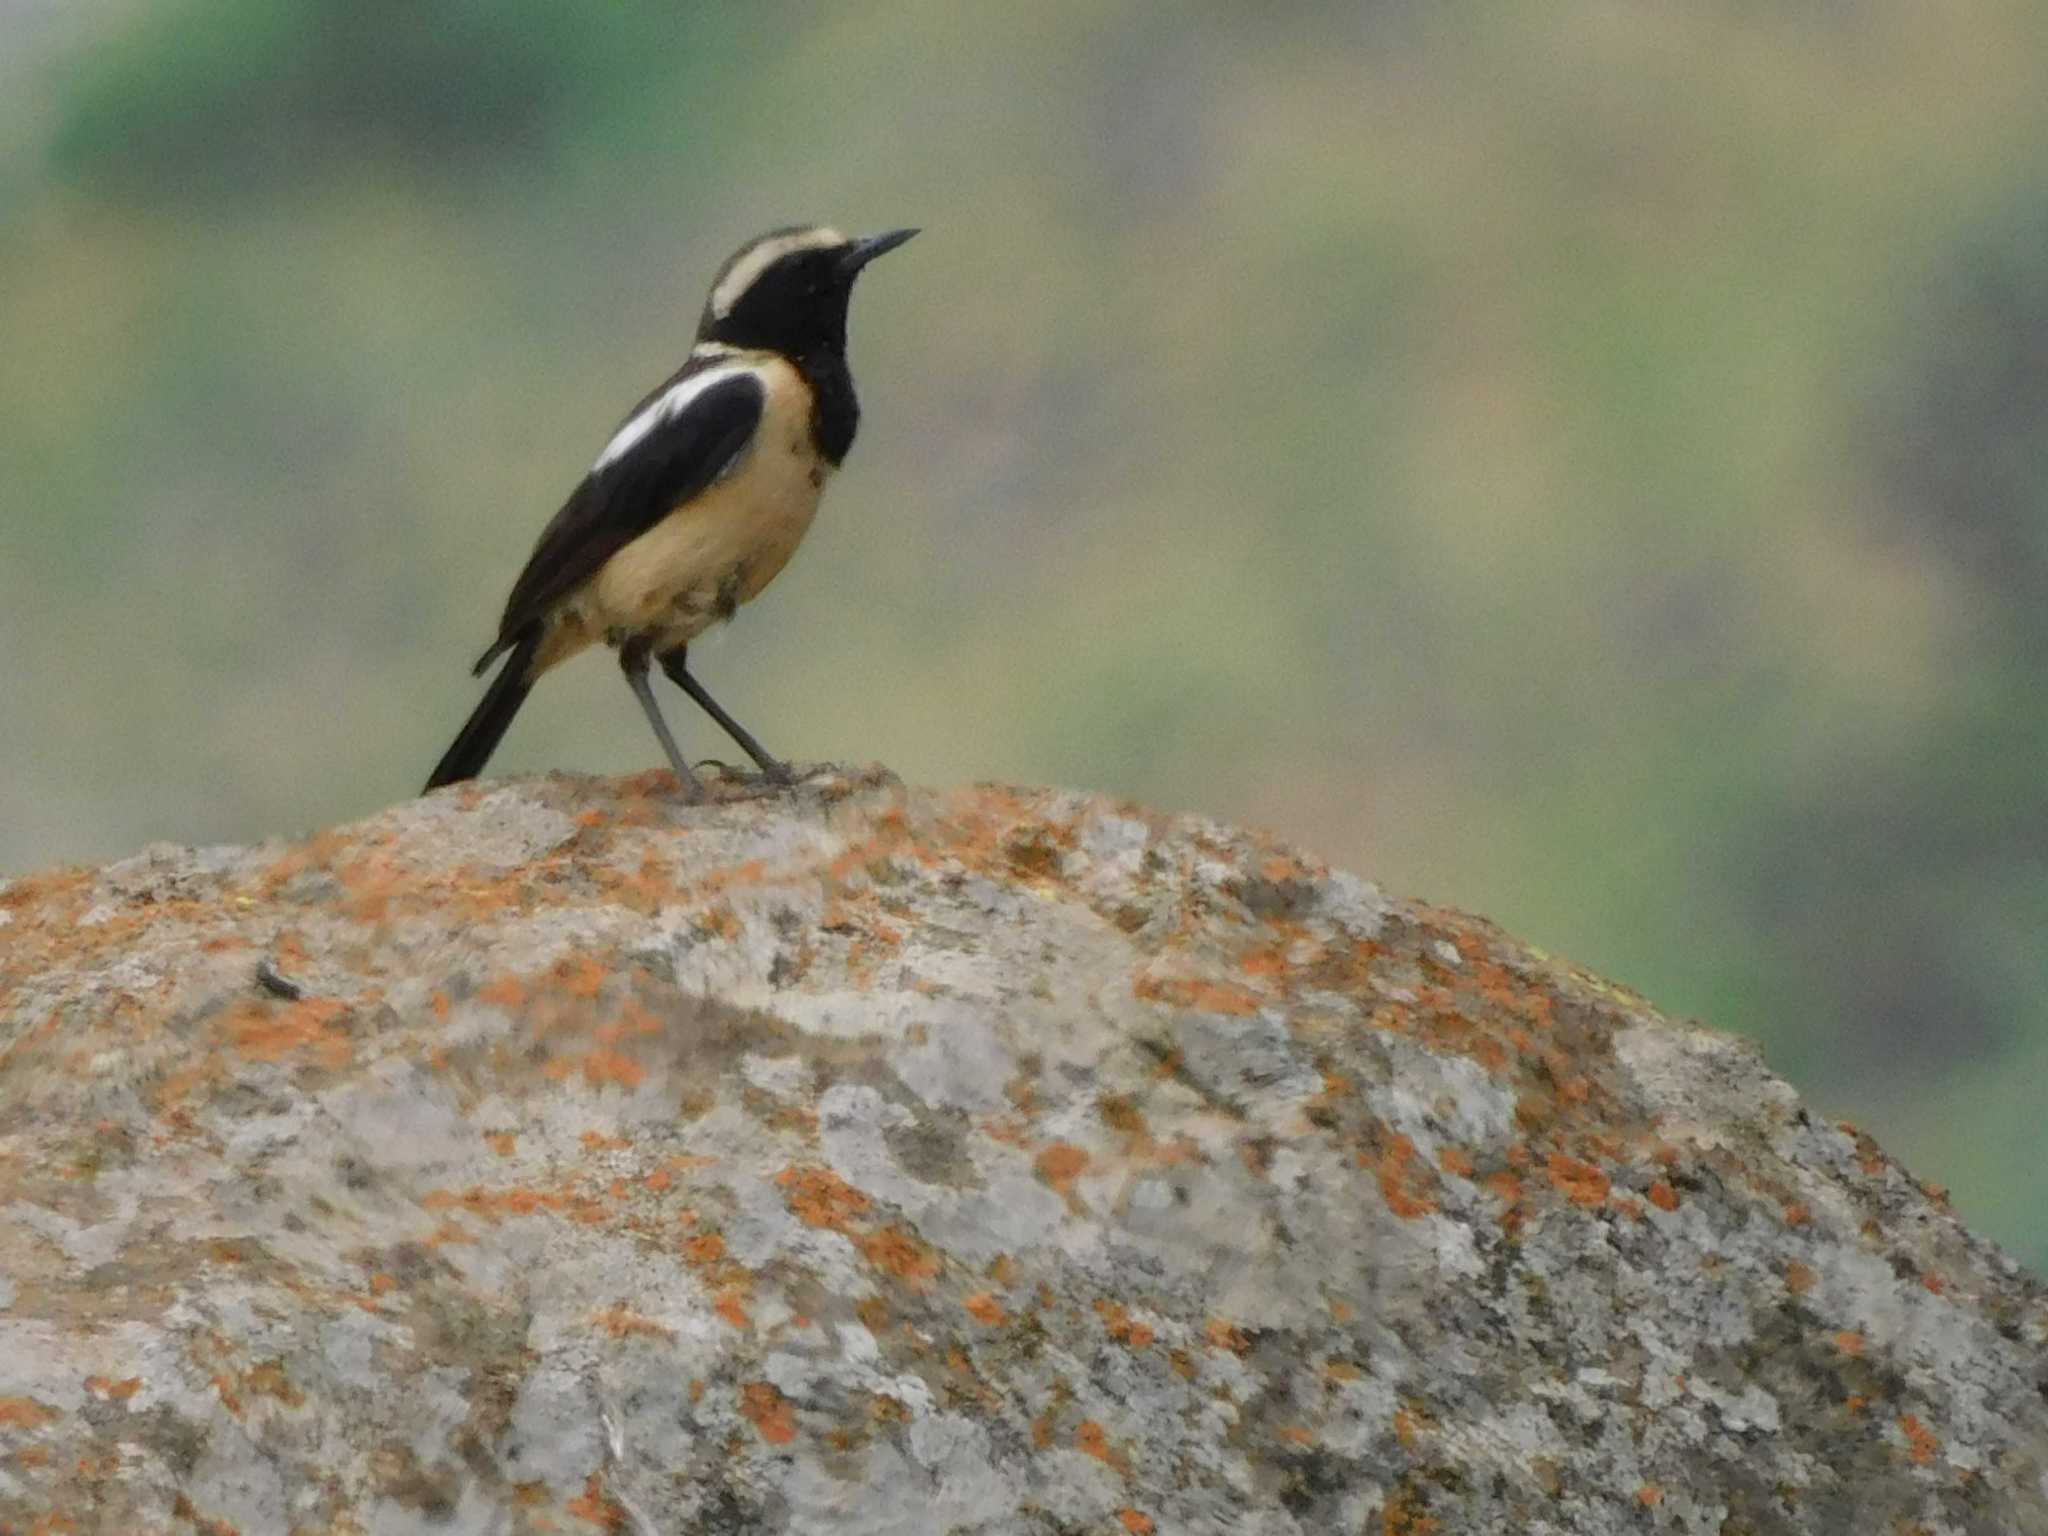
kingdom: Animalia
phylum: Chordata
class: Aves
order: Passeriformes
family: Muscicapidae
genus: Campicoloides
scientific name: Campicoloides bifasciatus
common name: Buff-streaked chat
